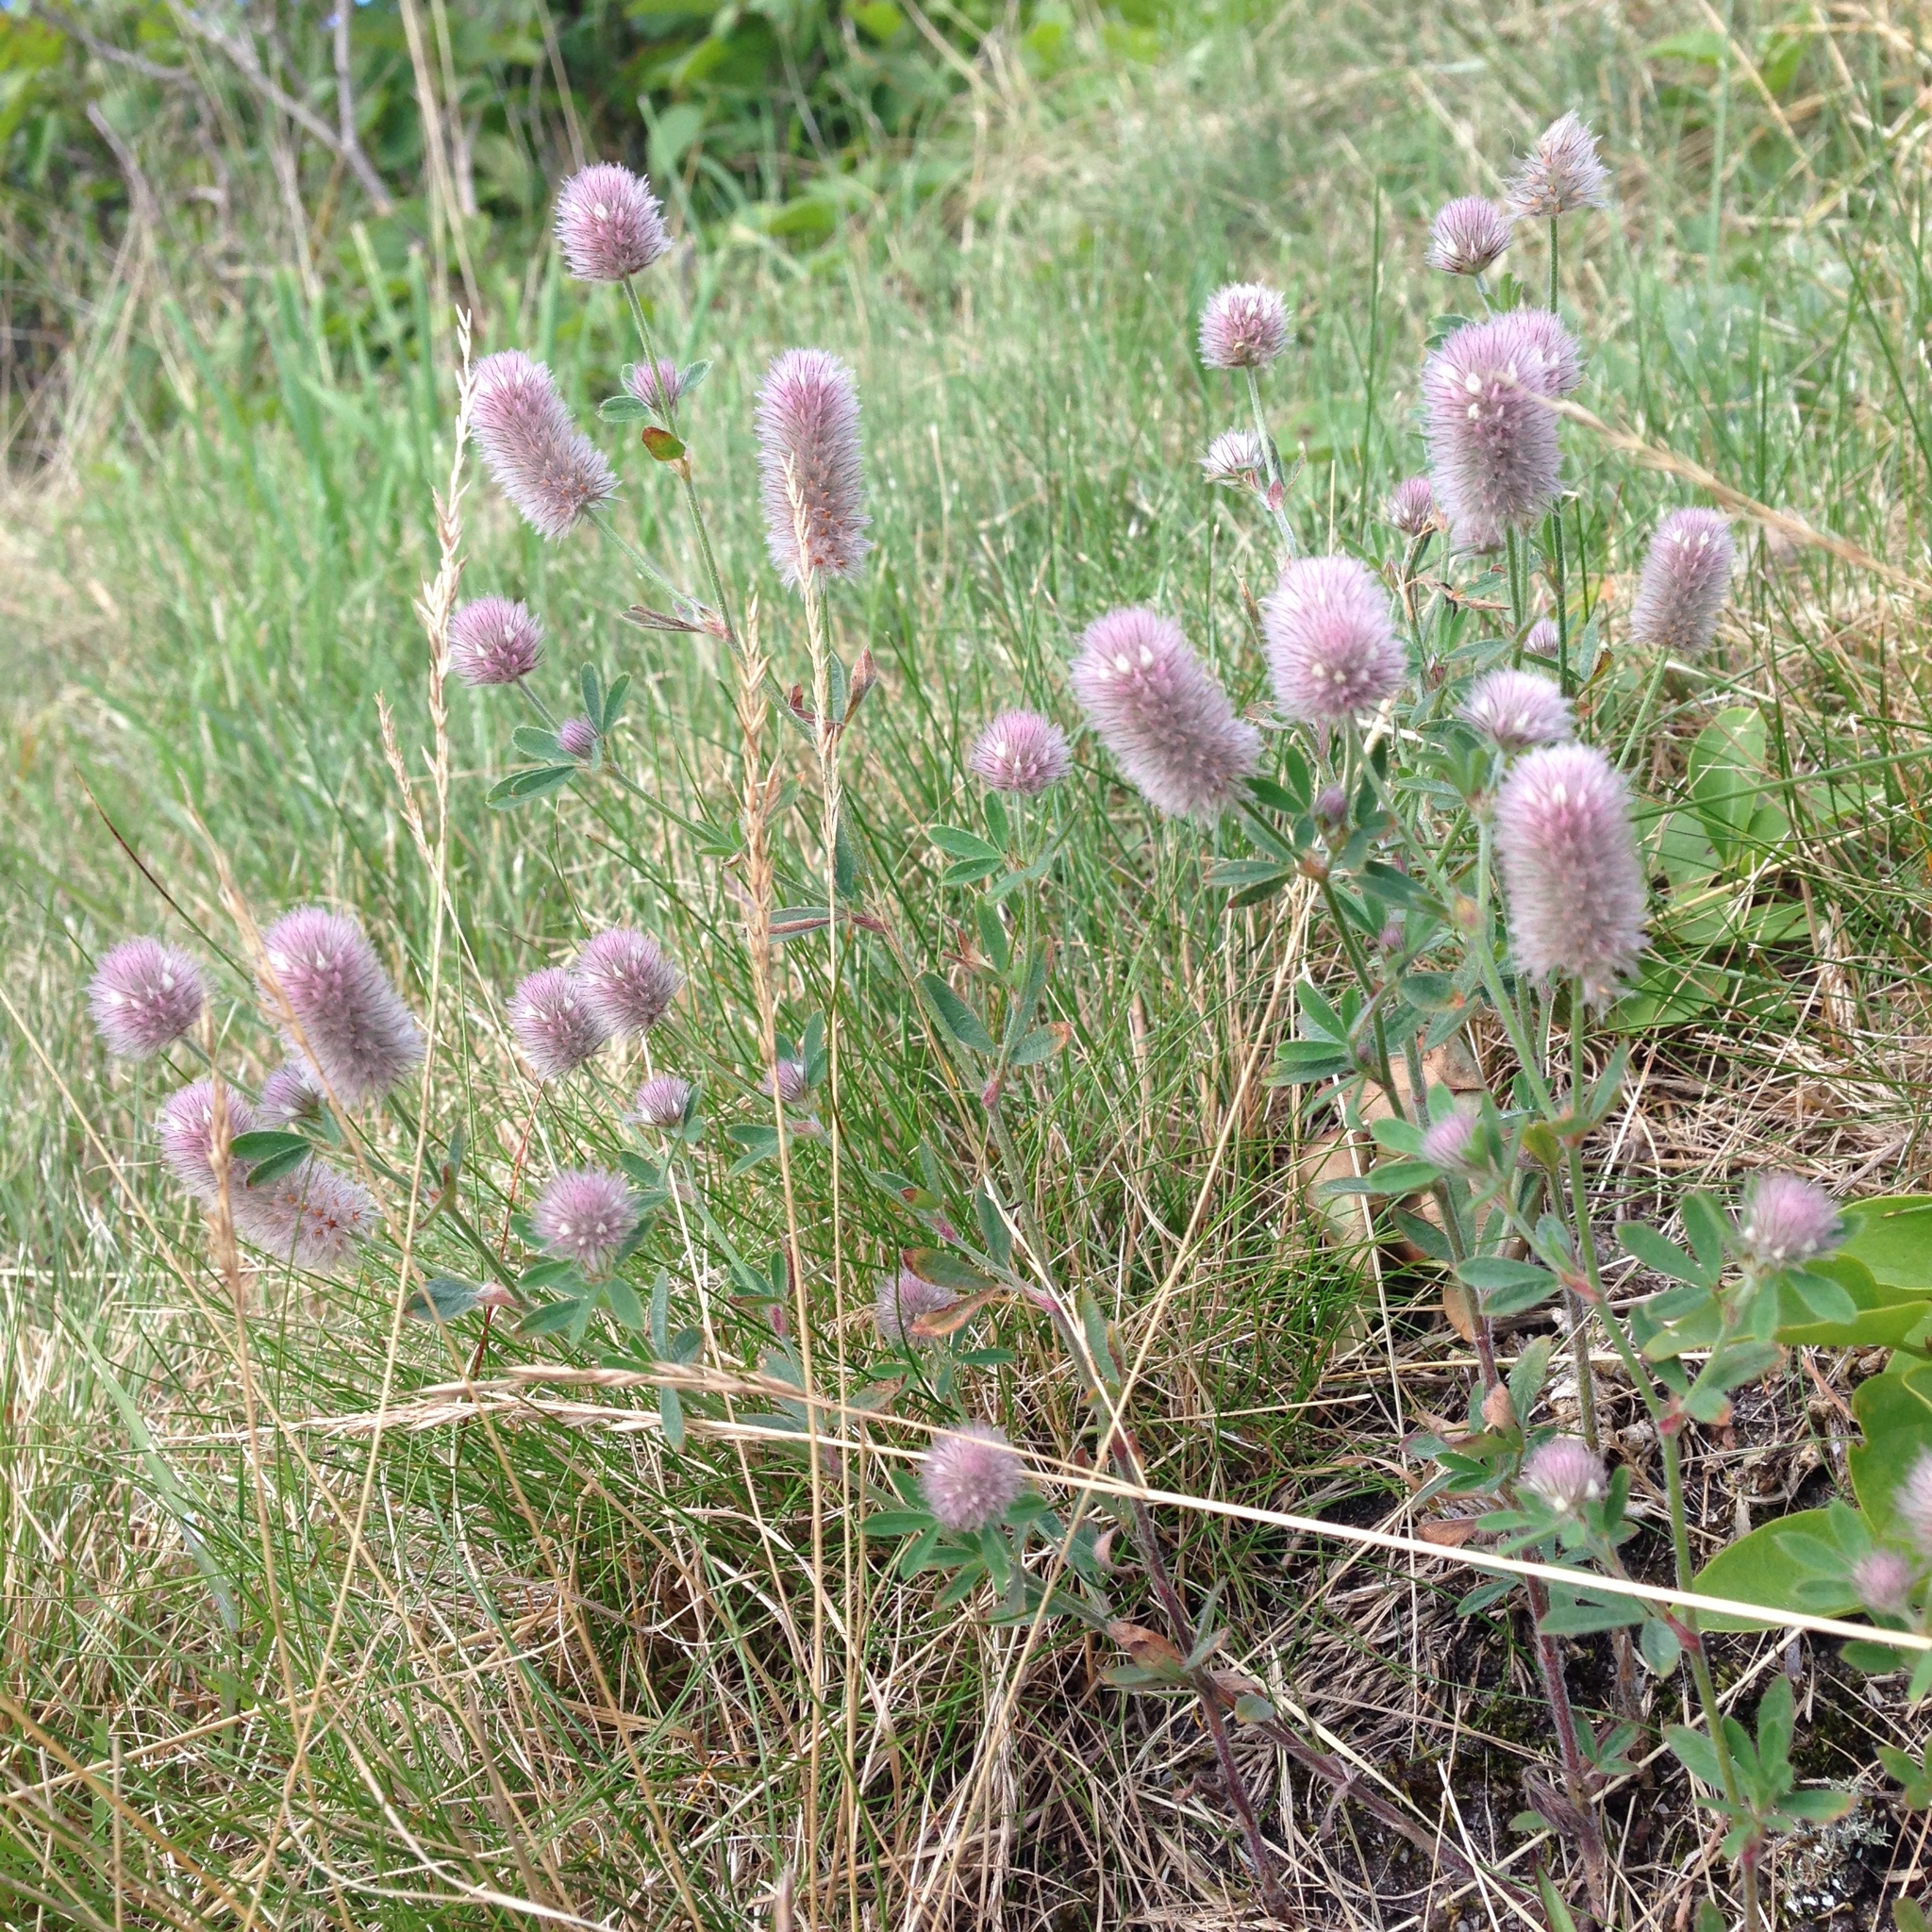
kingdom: Plantae
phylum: Tracheophyta
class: Magnoliopsida
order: Fabales
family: Fabaceae
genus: Trifolium
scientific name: Trifolium arvense
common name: Hare's-foot clover
